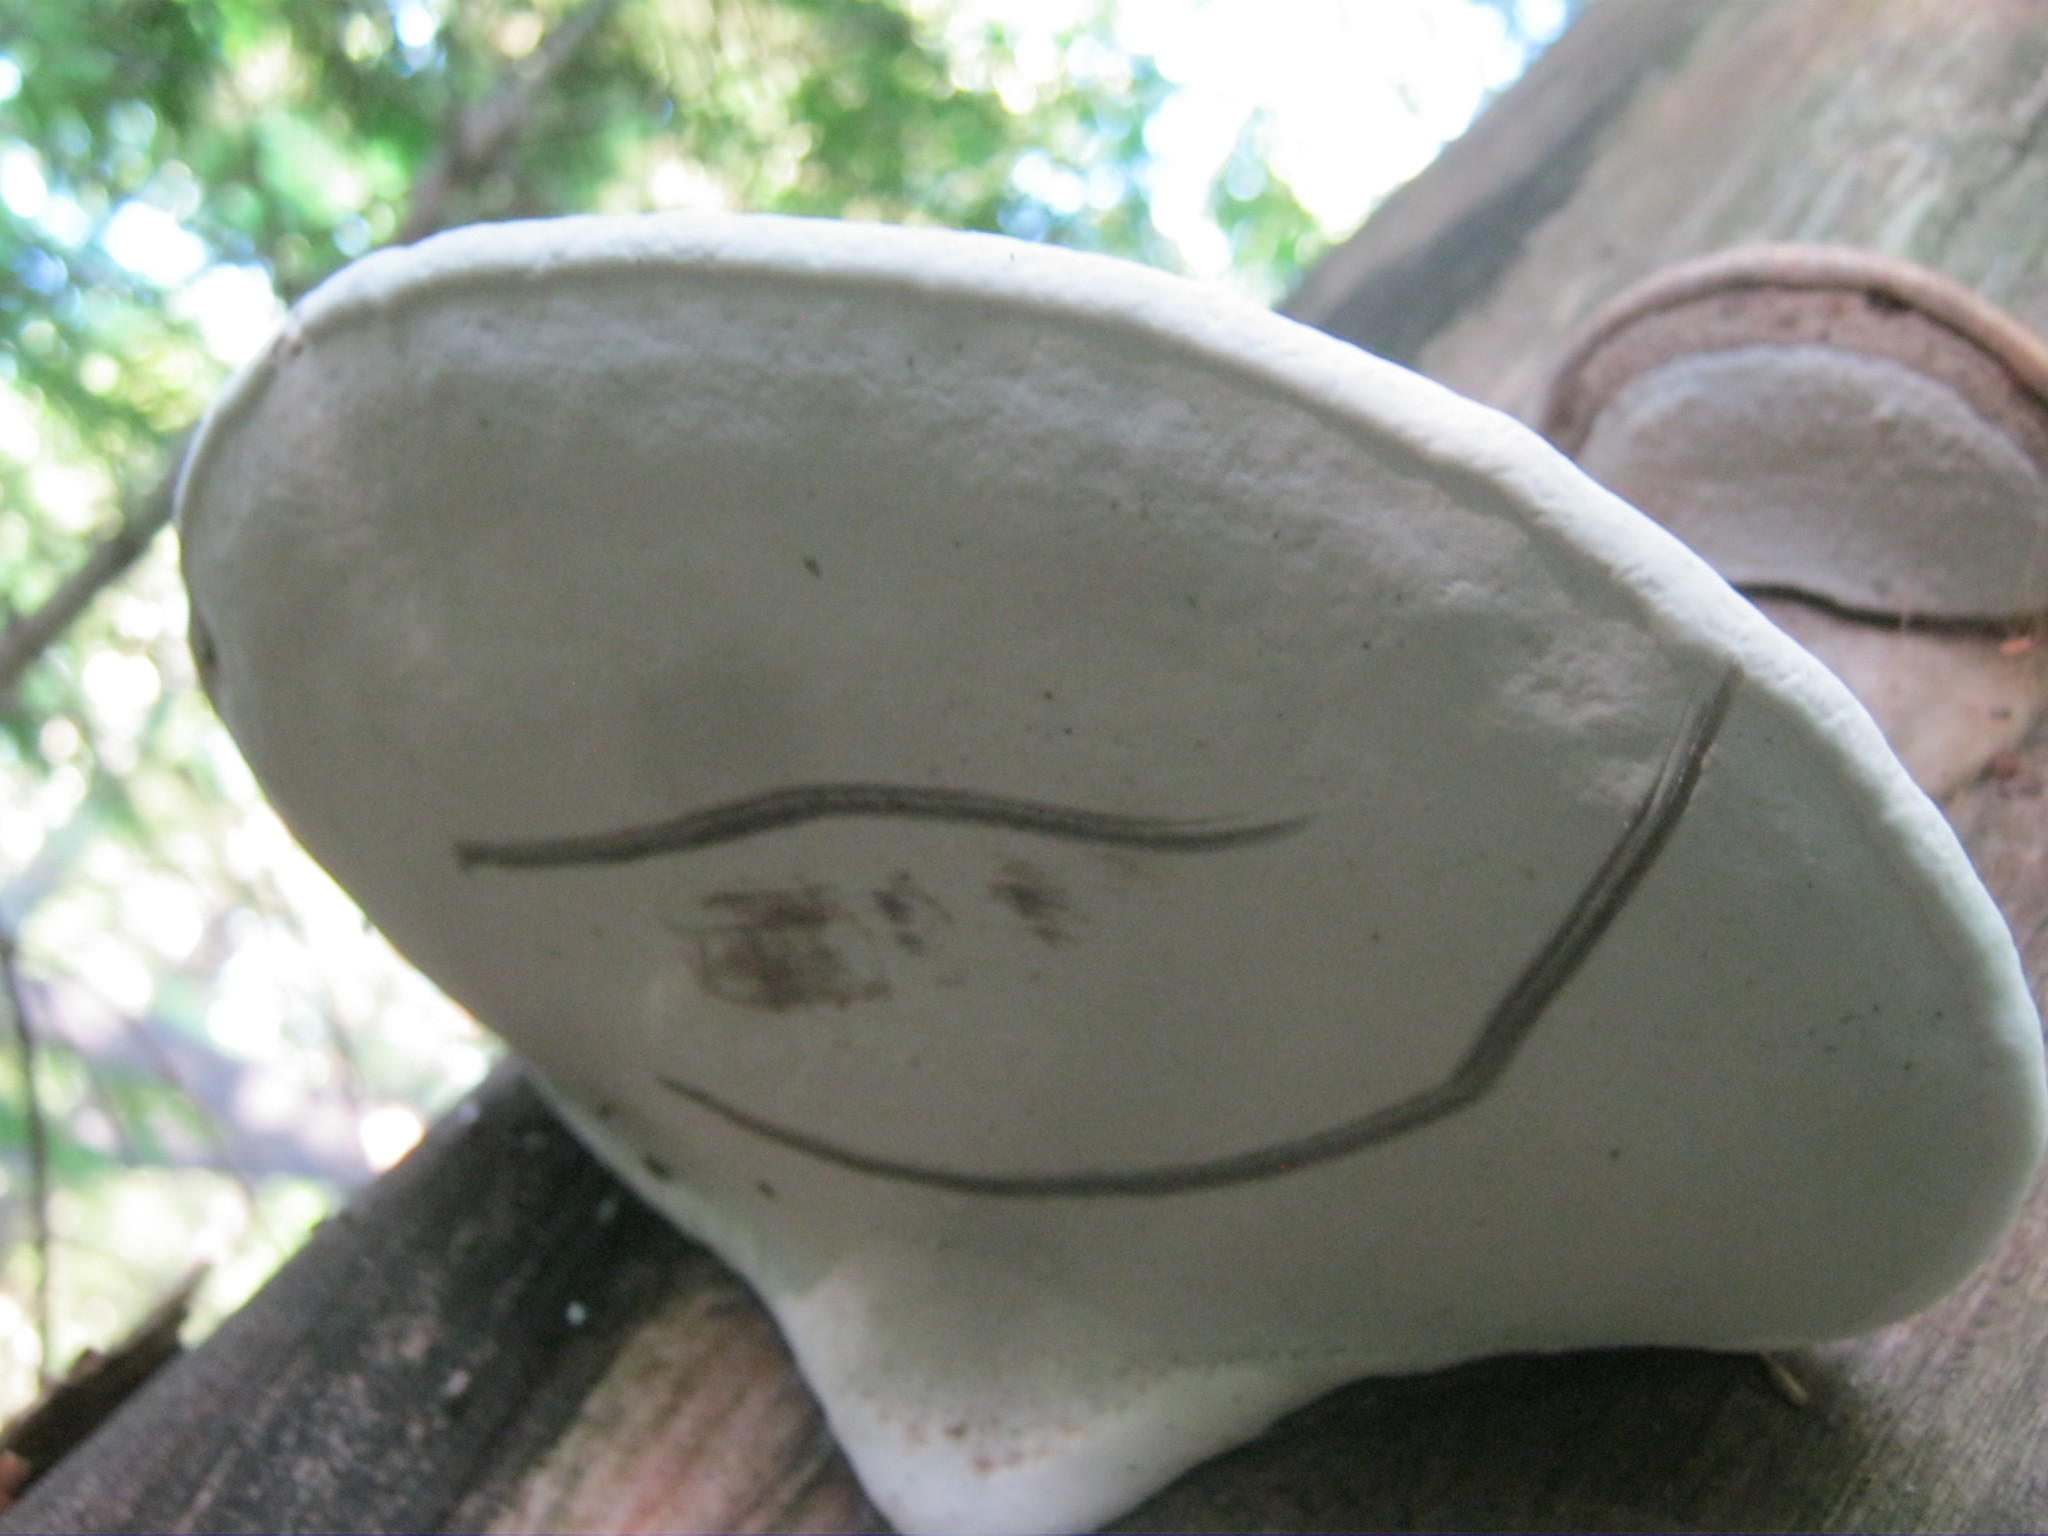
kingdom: Fungi
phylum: Basidiomycota
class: Agaricomycetes
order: Polyporales
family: Polyporaceae
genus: Ganoderma
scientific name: Ganoderma applanatum
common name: Artist's bracket
